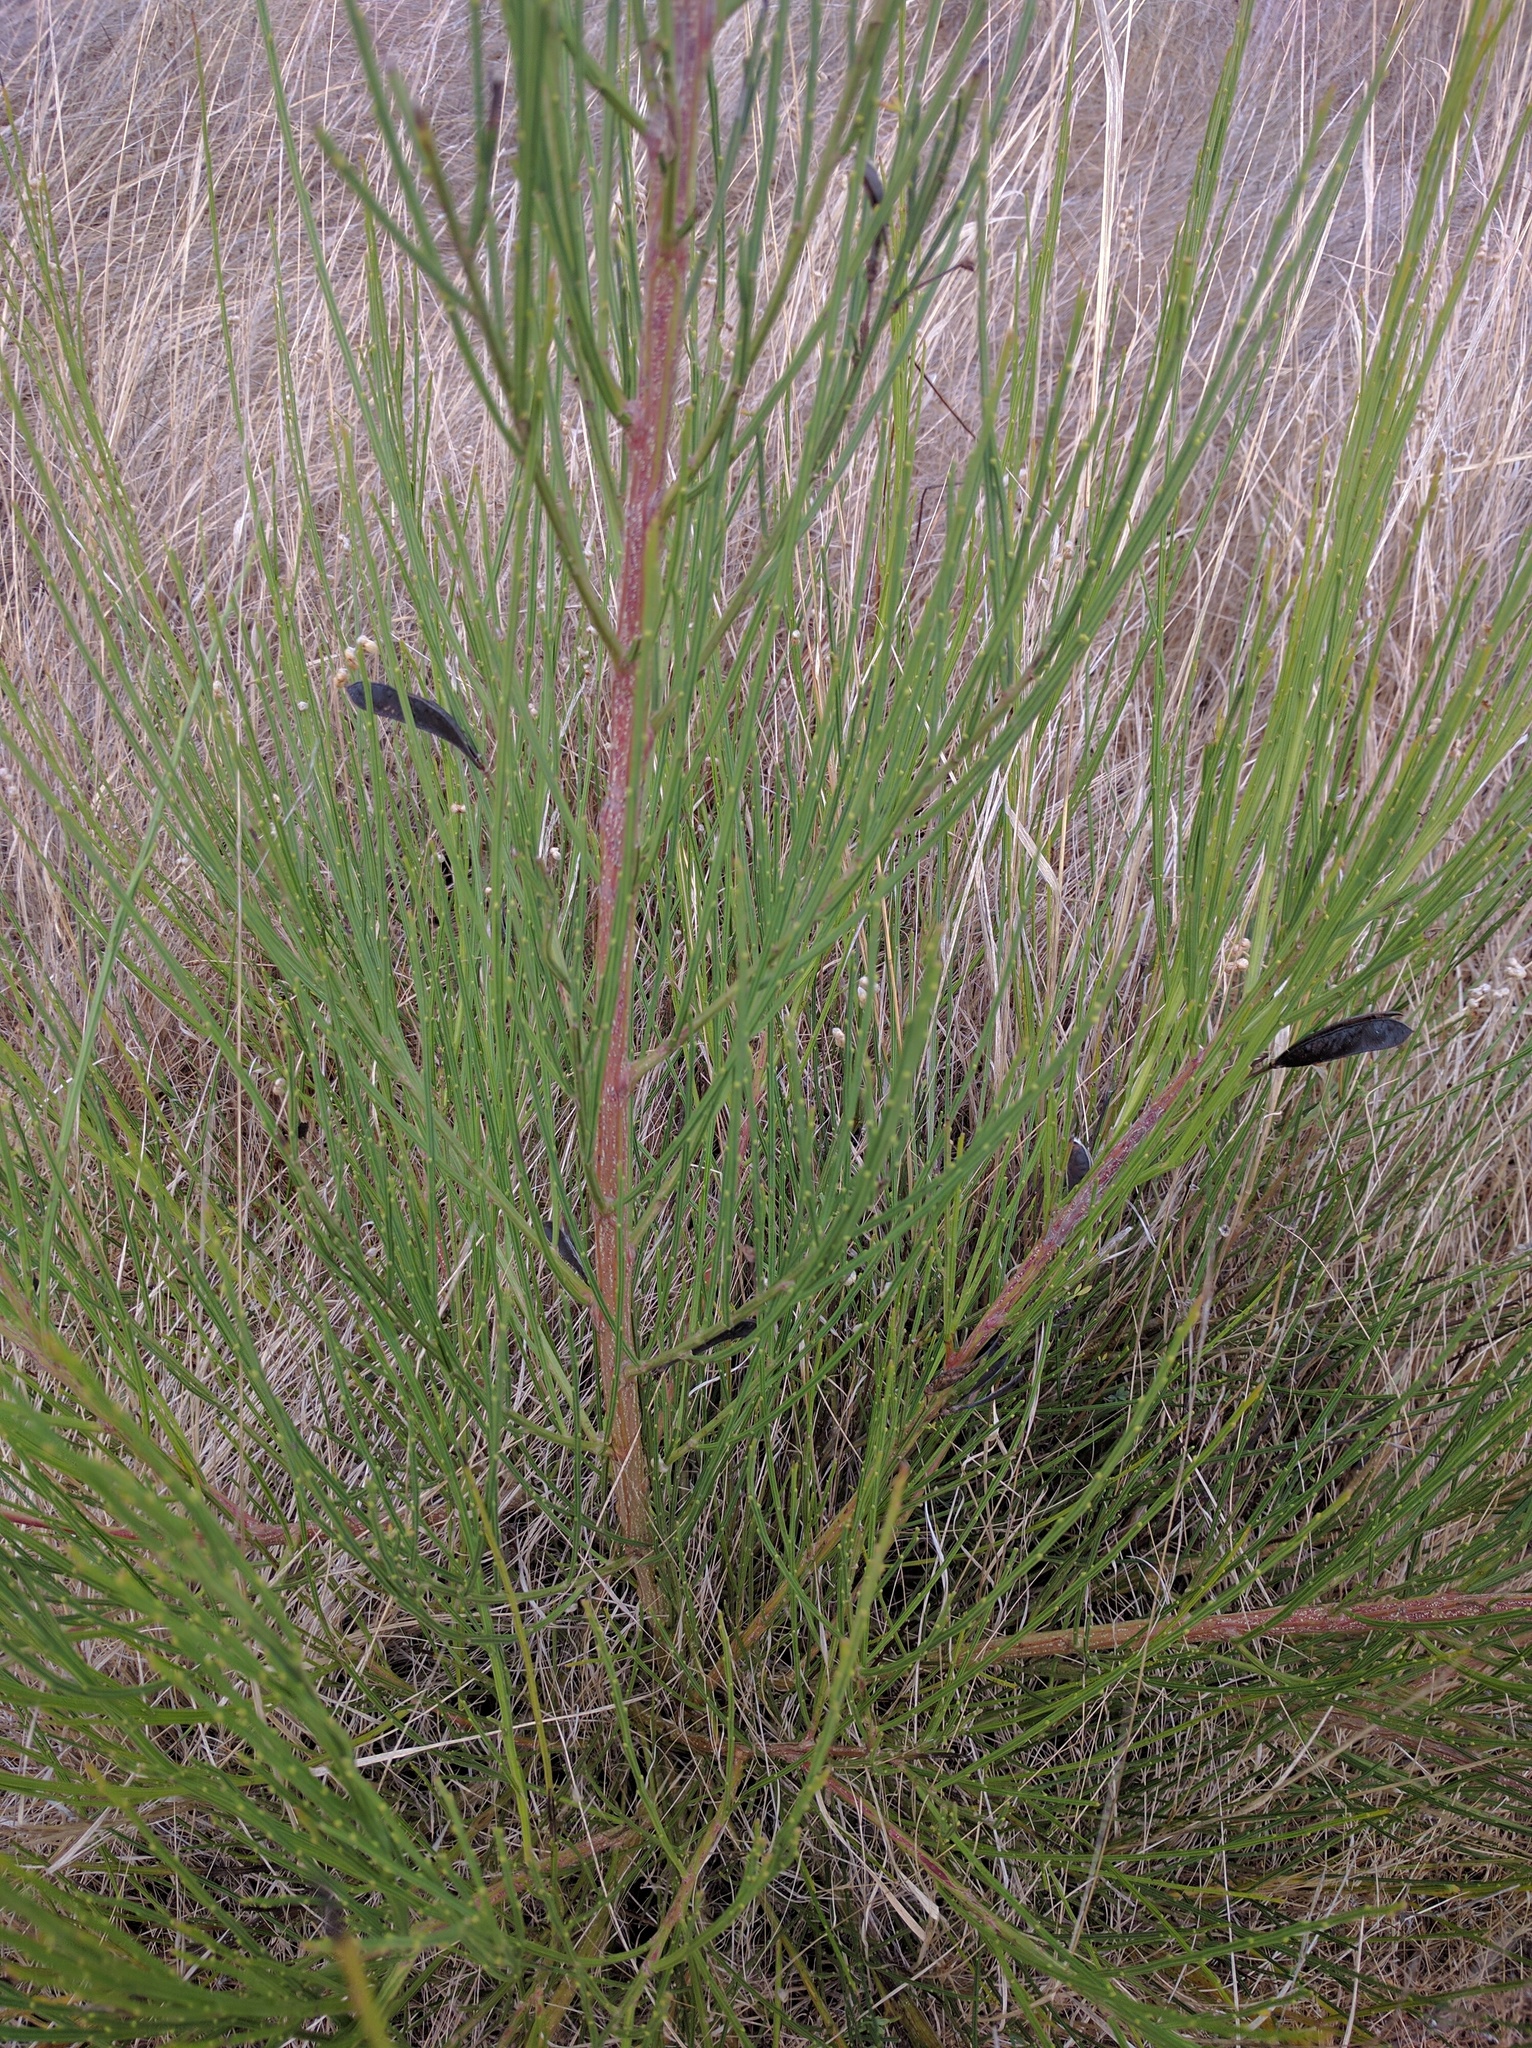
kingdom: Plantae
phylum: Tracheophyta
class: Magnoliopsida
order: Fabales
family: Fabaceae
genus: Cytisus
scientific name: Cytisus scoparius
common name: Scotch broom
